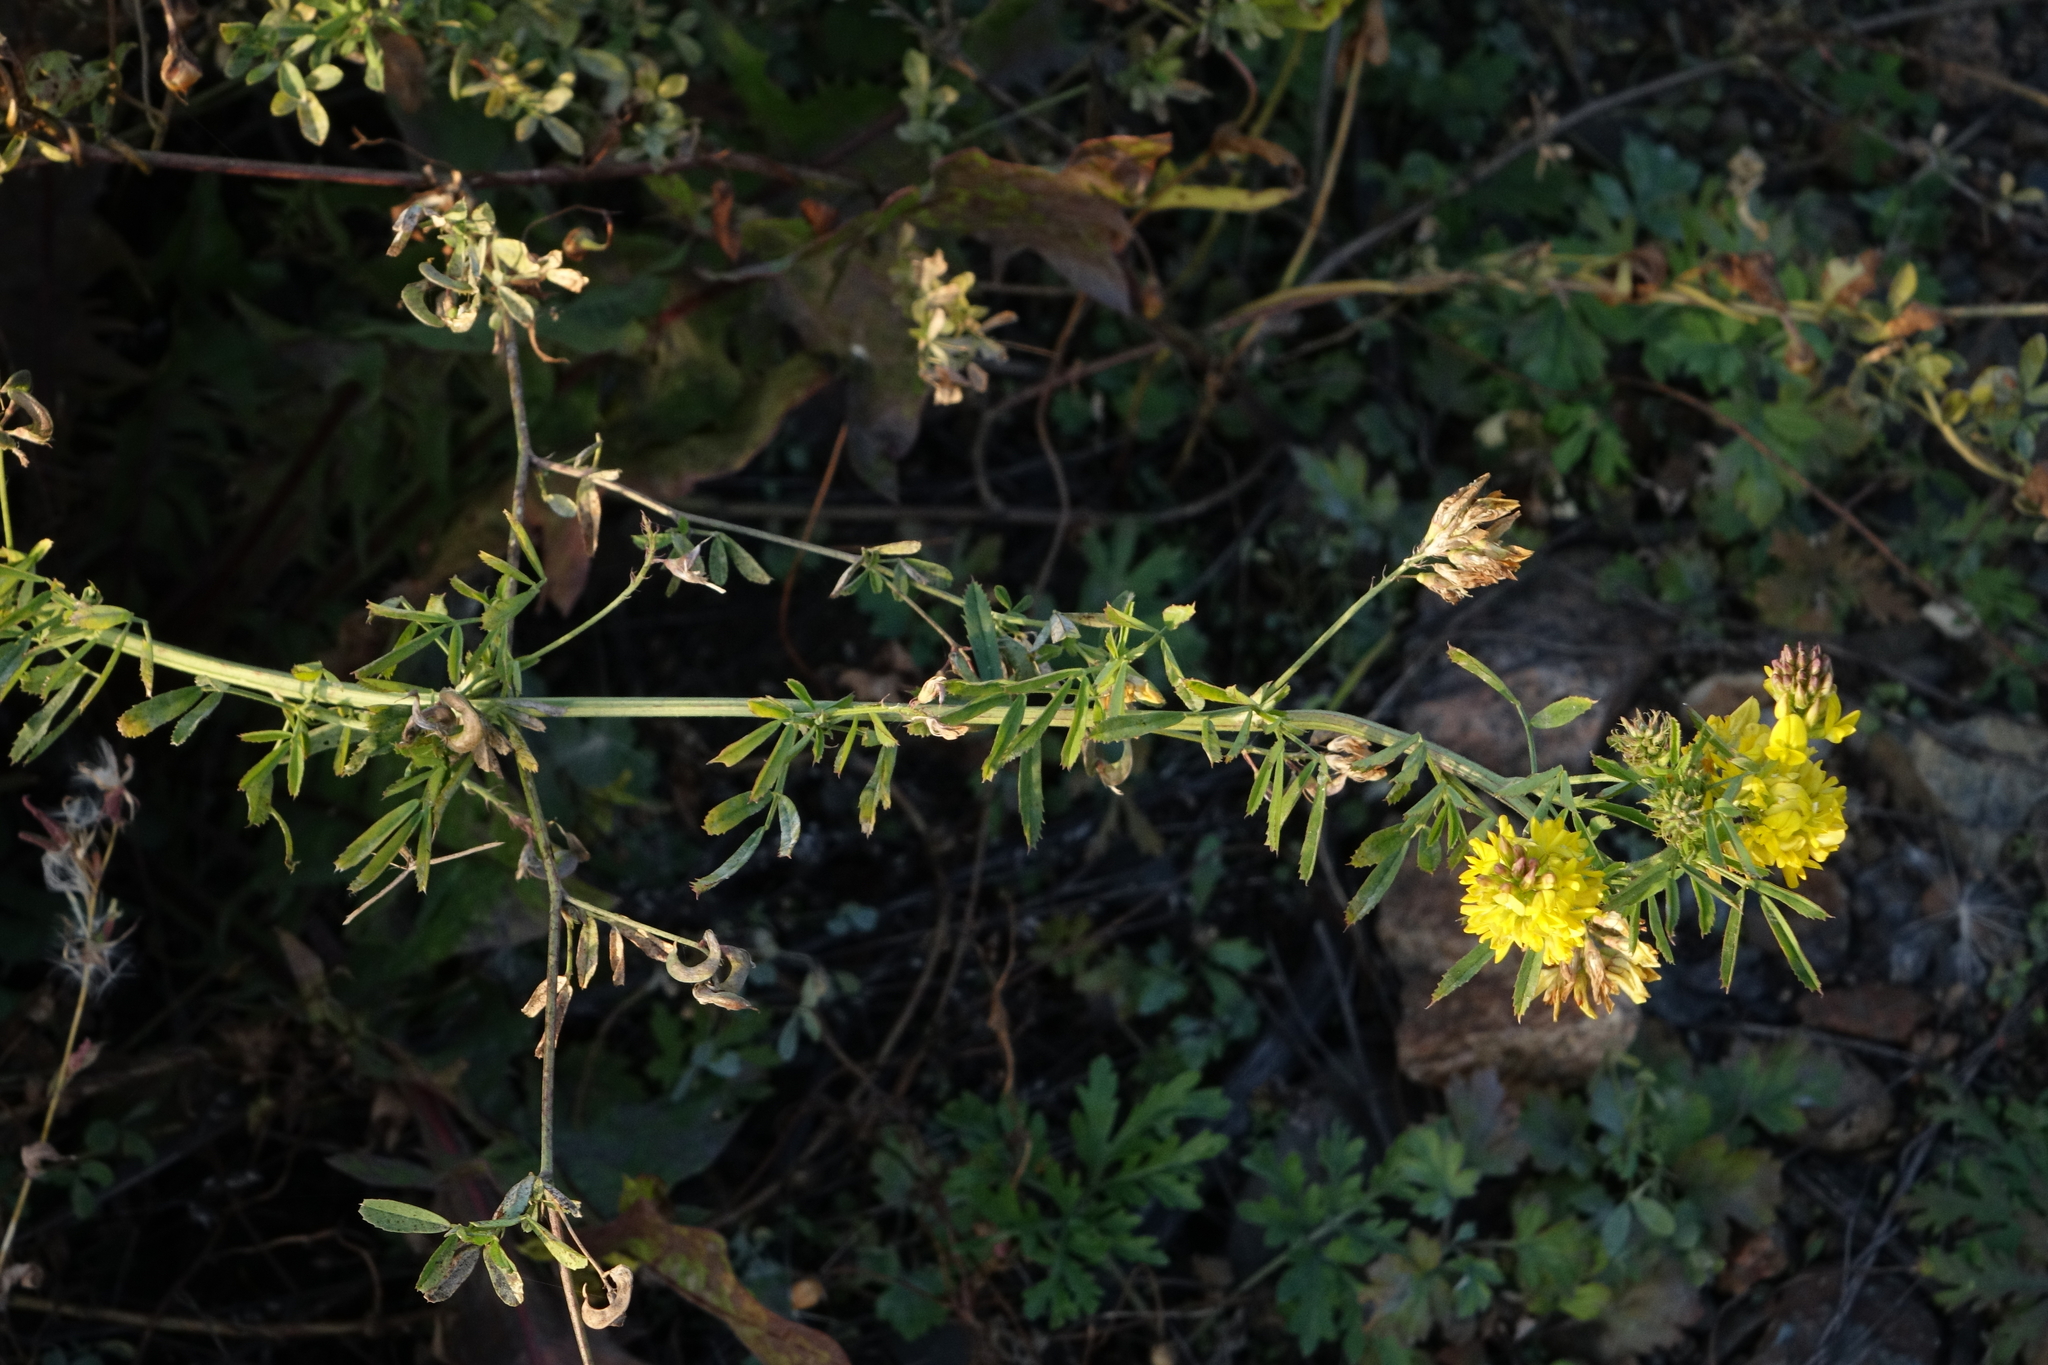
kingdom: Plantae
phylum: Tracheophyta
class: Magnoliopsida
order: Fabales
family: Fabaceae
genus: Medicago
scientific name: Medicago varia
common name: Sand lucerne
